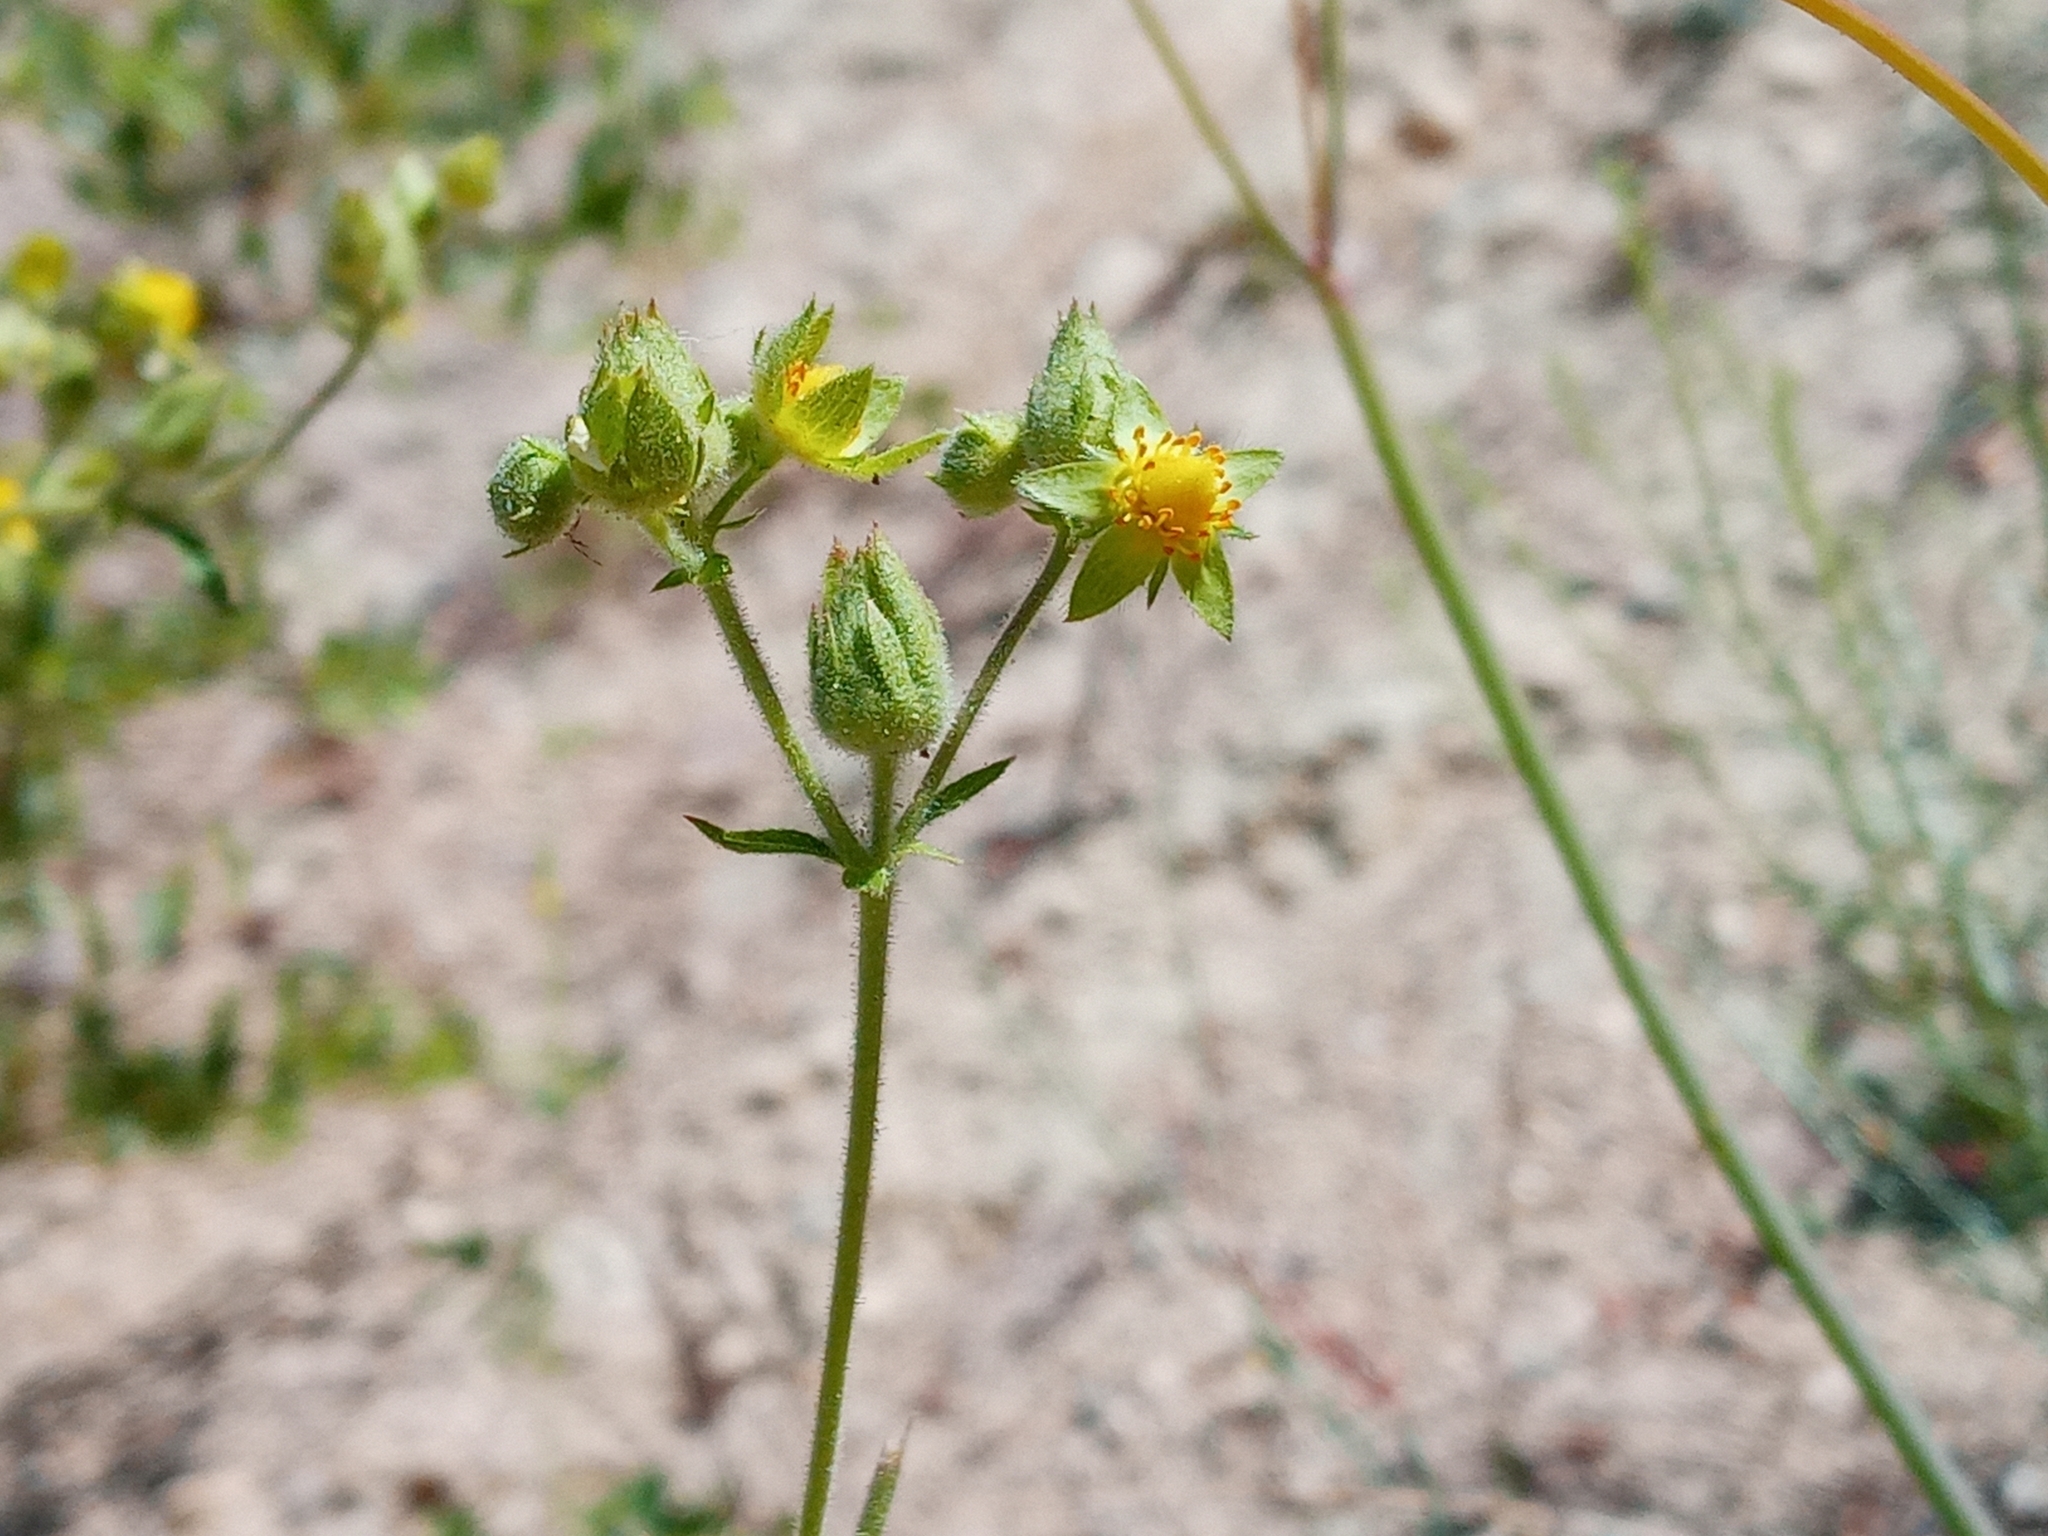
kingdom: Plantae
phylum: Tracheophyta
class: Magnoliopsida
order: Rosales
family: Rosaceae
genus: Drymocallis
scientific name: Drymocallis glandulosa
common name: Sticky cinquefoil
